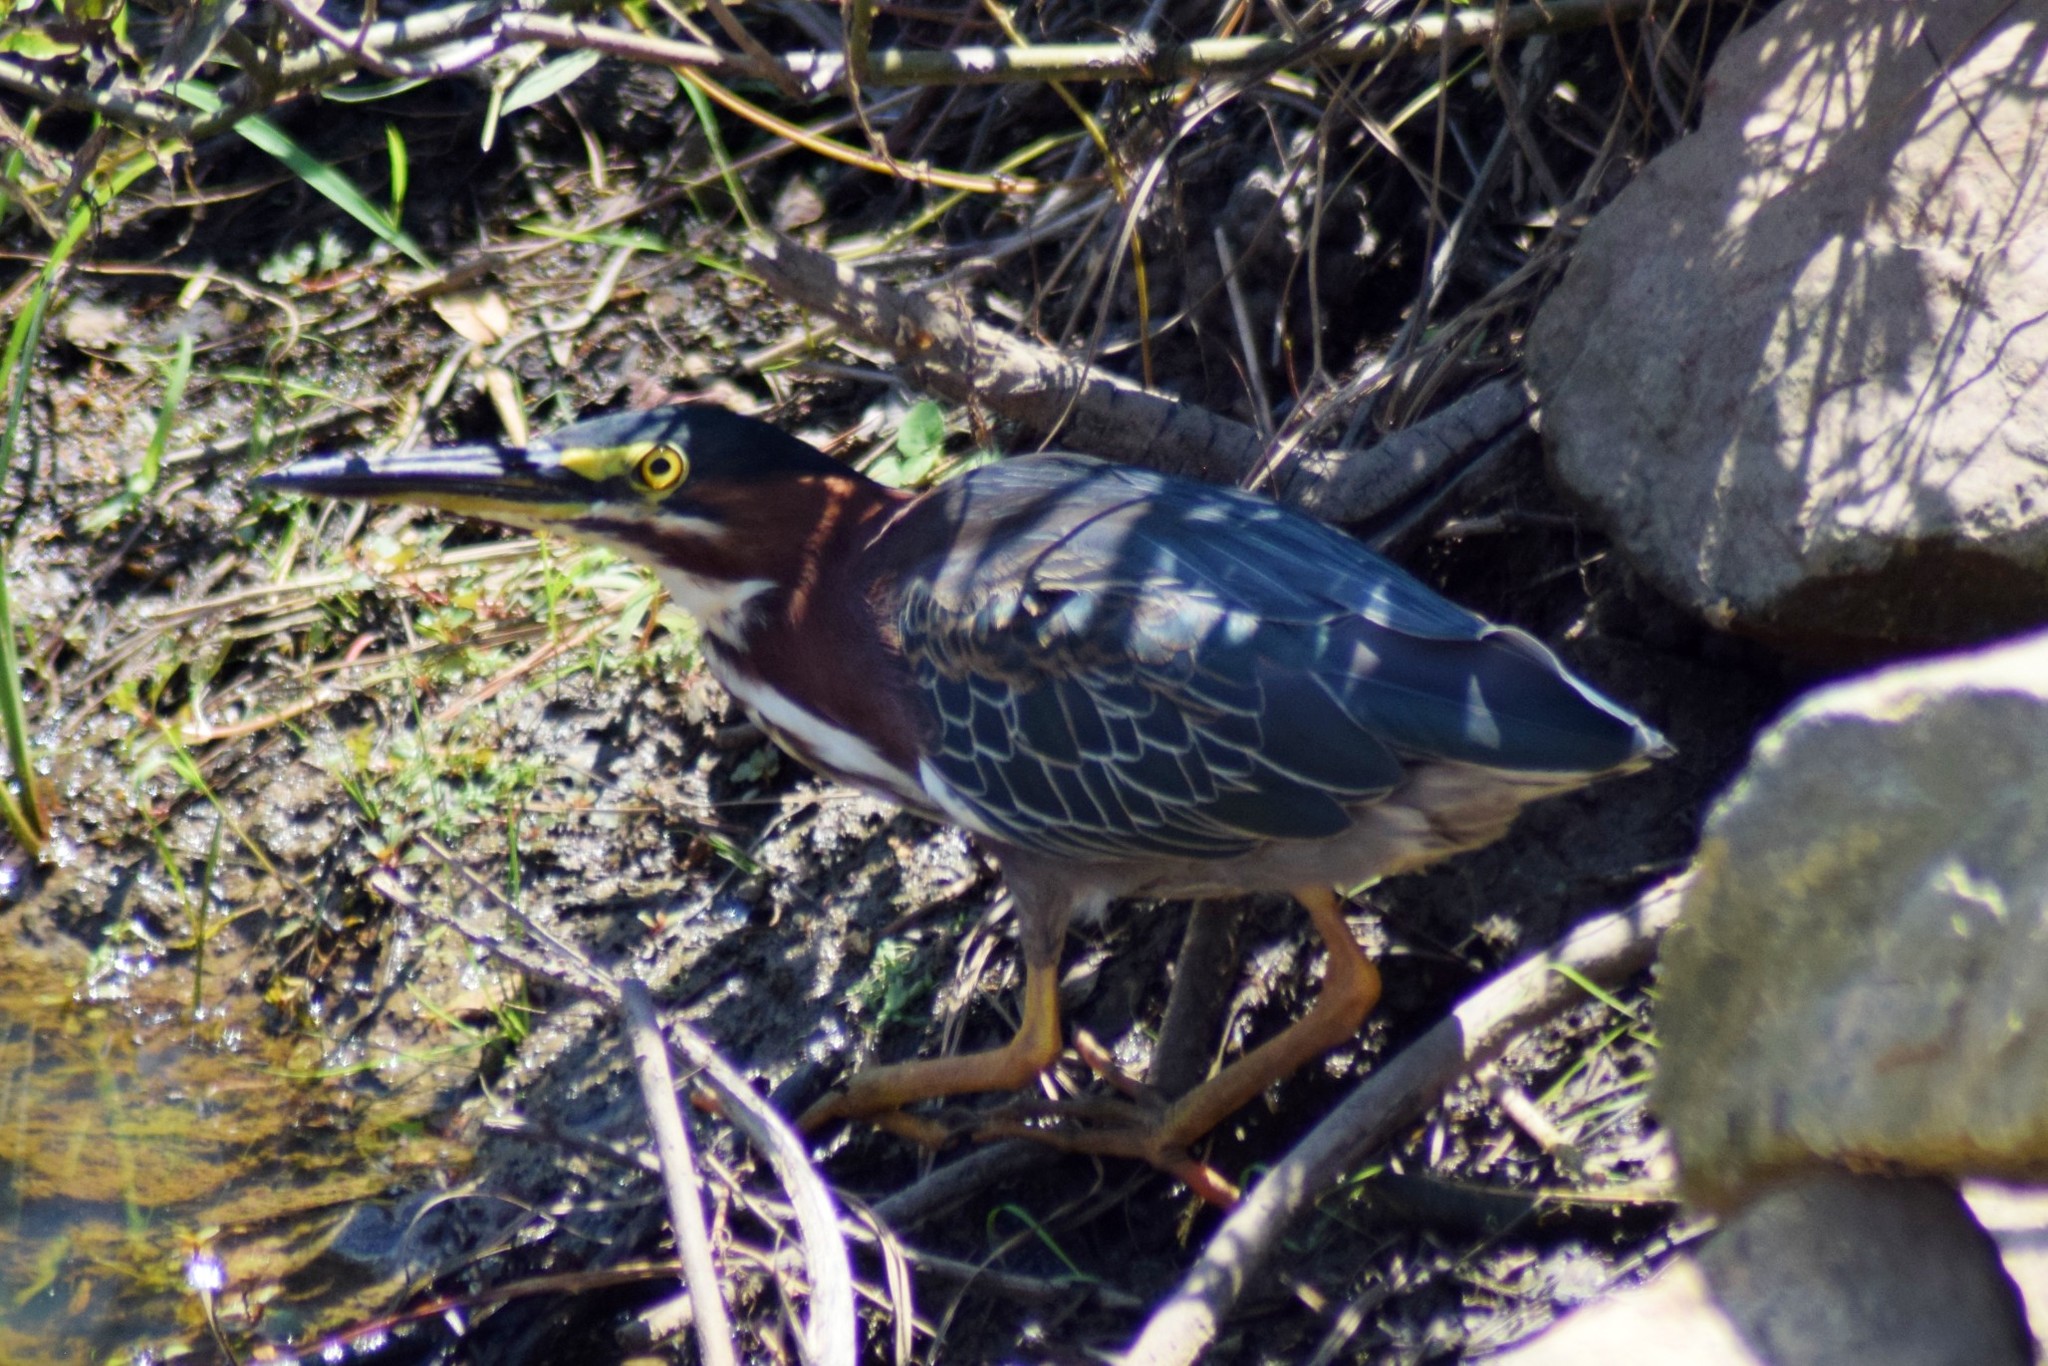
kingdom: Animalia
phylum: Chordata
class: Aves
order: Pelecaniformes
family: Ardeidae
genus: Butorides
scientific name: Butorides virescens
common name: Green heron
